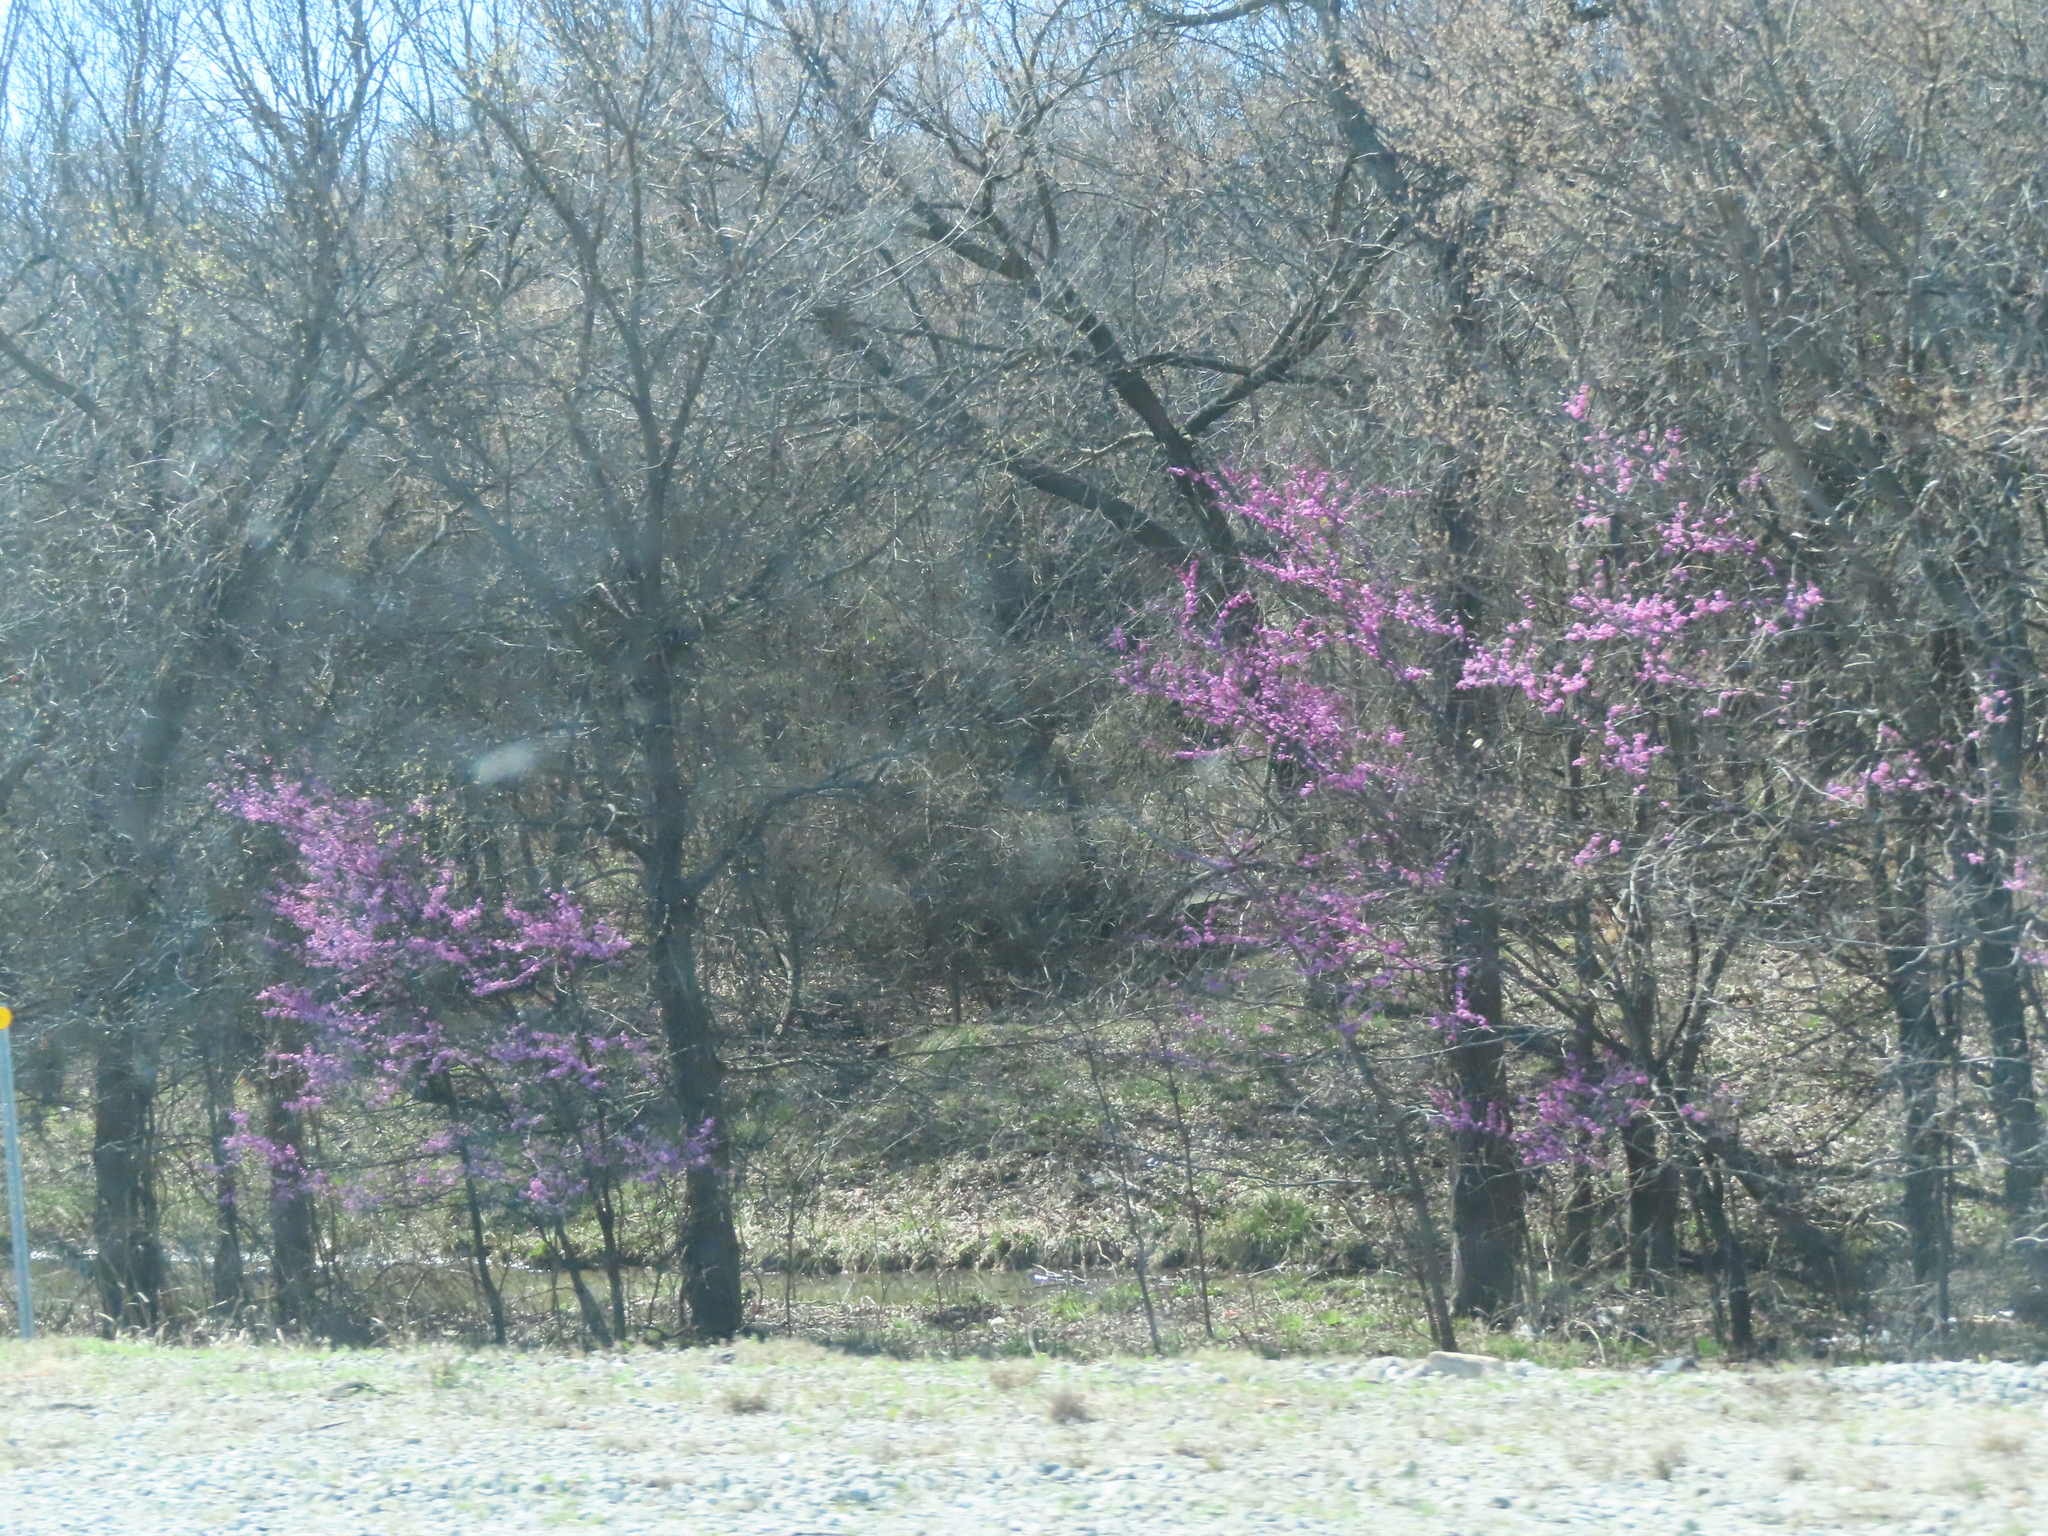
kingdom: Plantae
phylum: Tracheophyta
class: Magnoliopsida
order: Fabales
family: Fabaceae
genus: Cercis
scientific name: Cercis canadensis
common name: Eastern redbud
